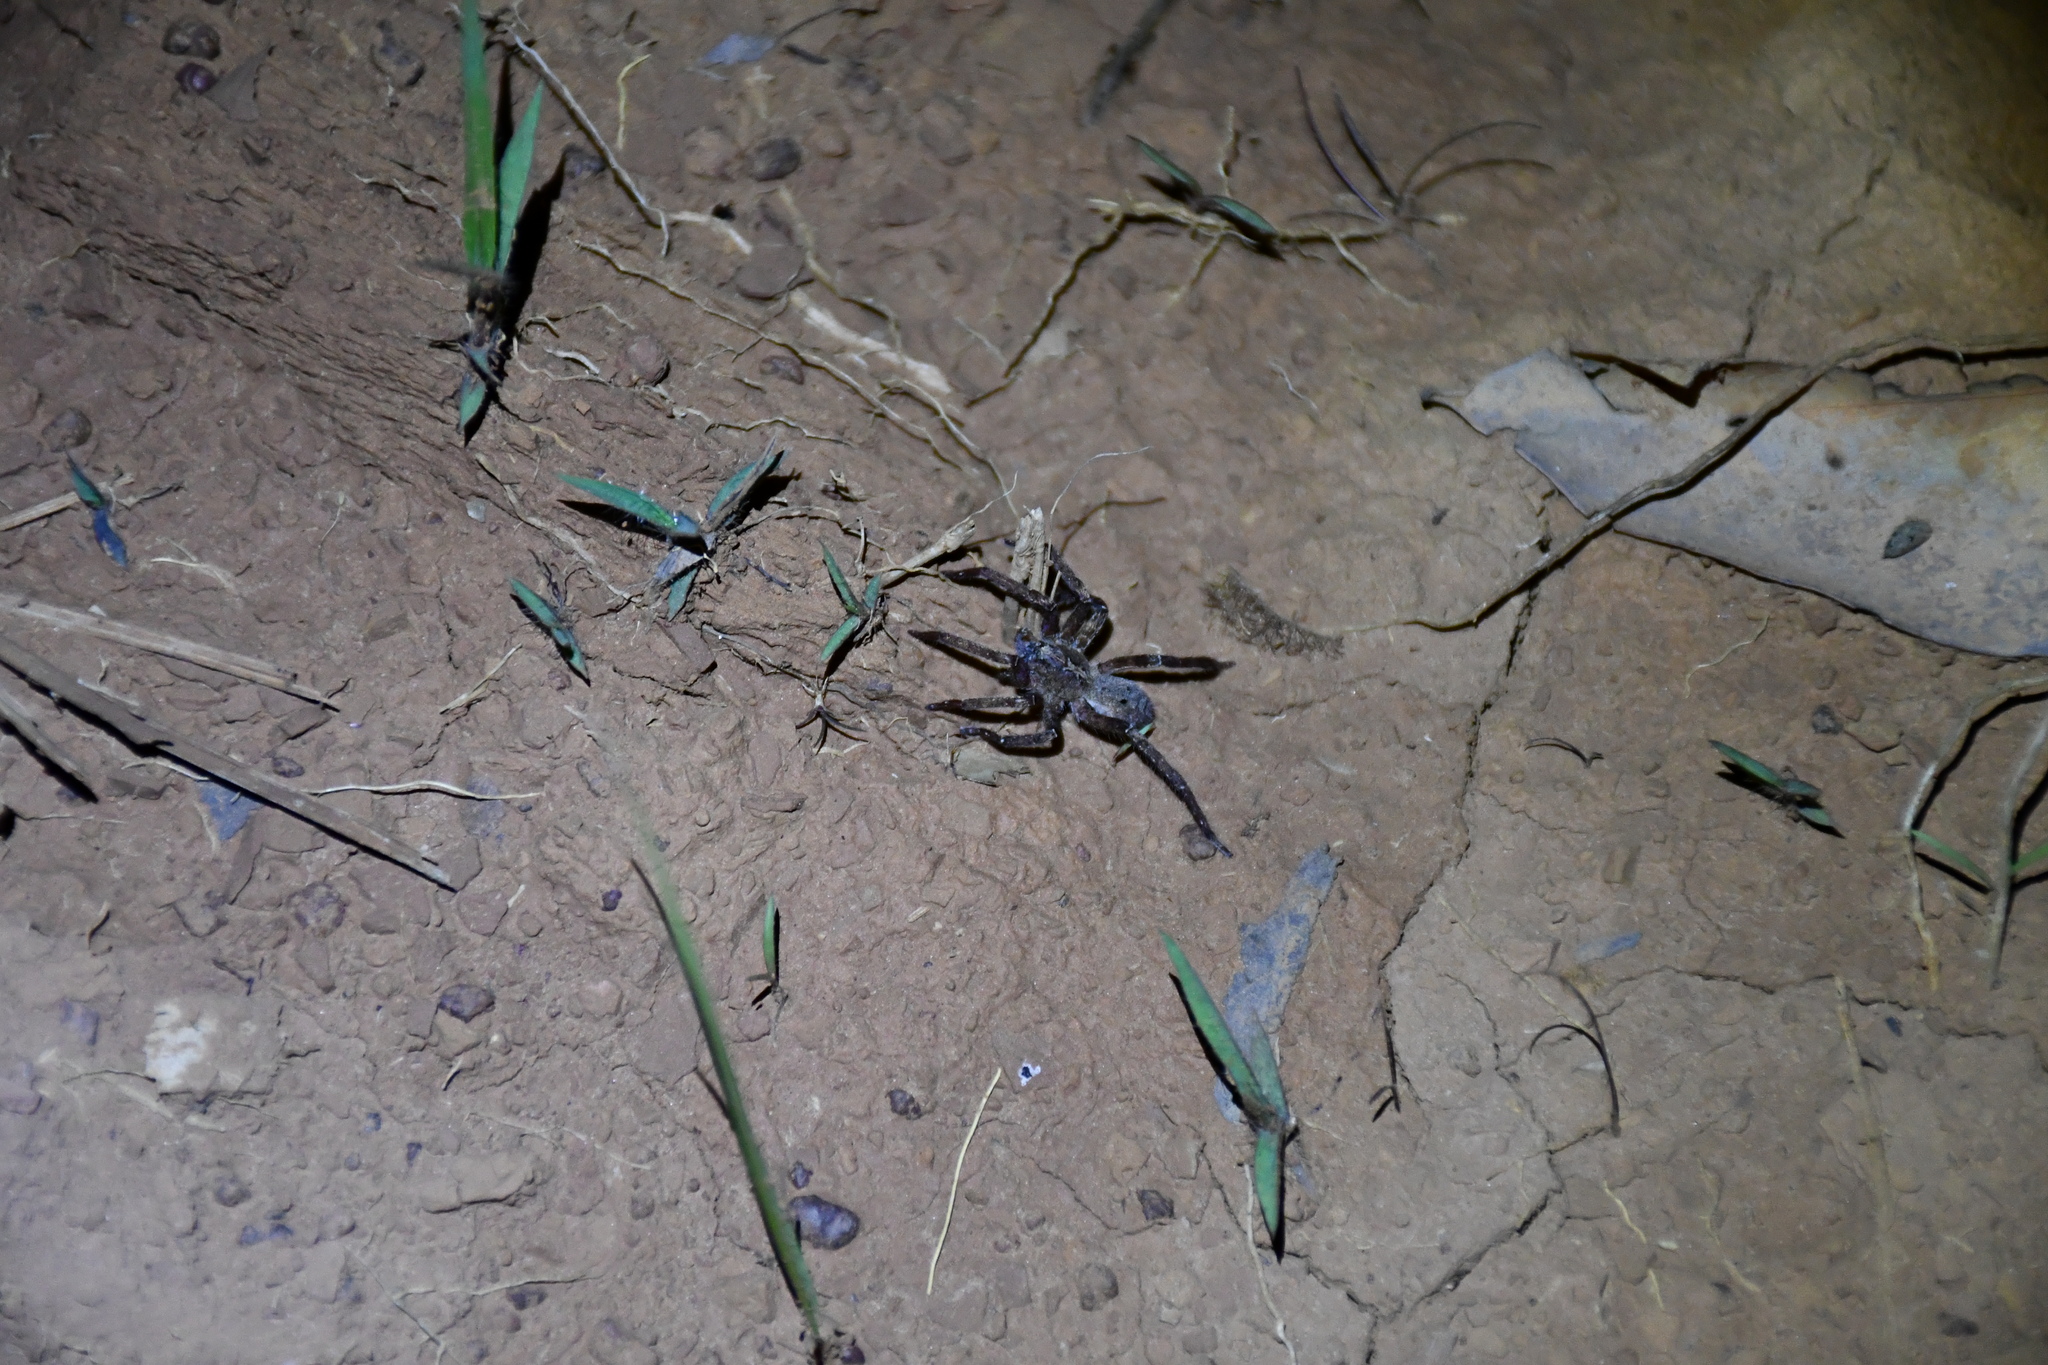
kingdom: Animalia
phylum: Arthropoda
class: Arachnida
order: Araneae
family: Ctenidae
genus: Parabatinga
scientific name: Parabatinga brevipes
